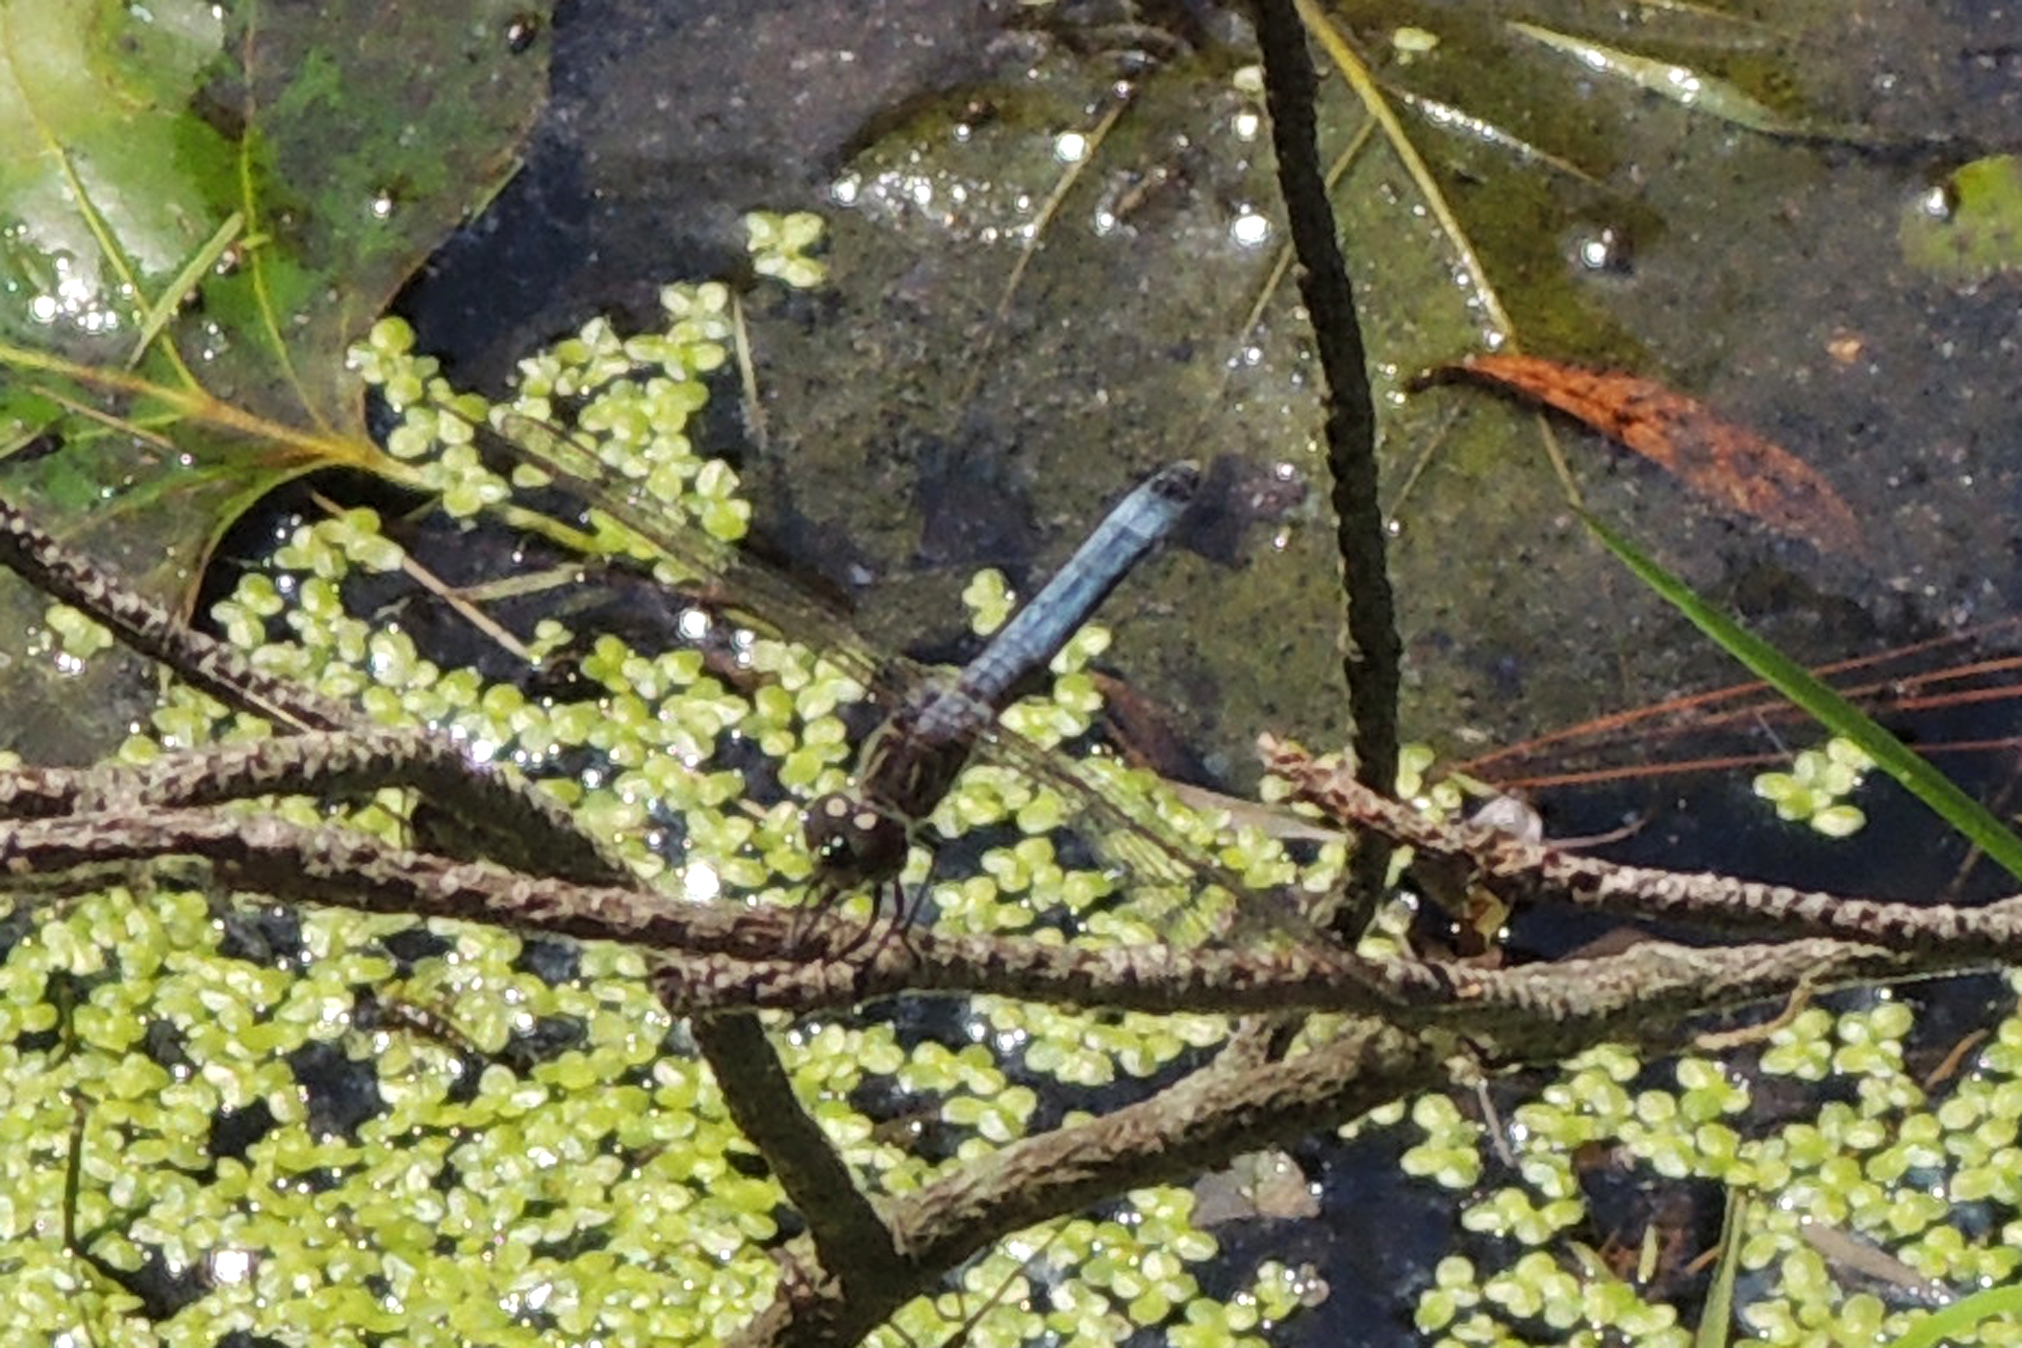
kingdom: Animalia
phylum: Arthropoda
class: Insecta
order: Odonata
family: Libellulidae
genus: Pachydiplax
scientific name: Pachydiplax longipennis
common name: Blue dasher
